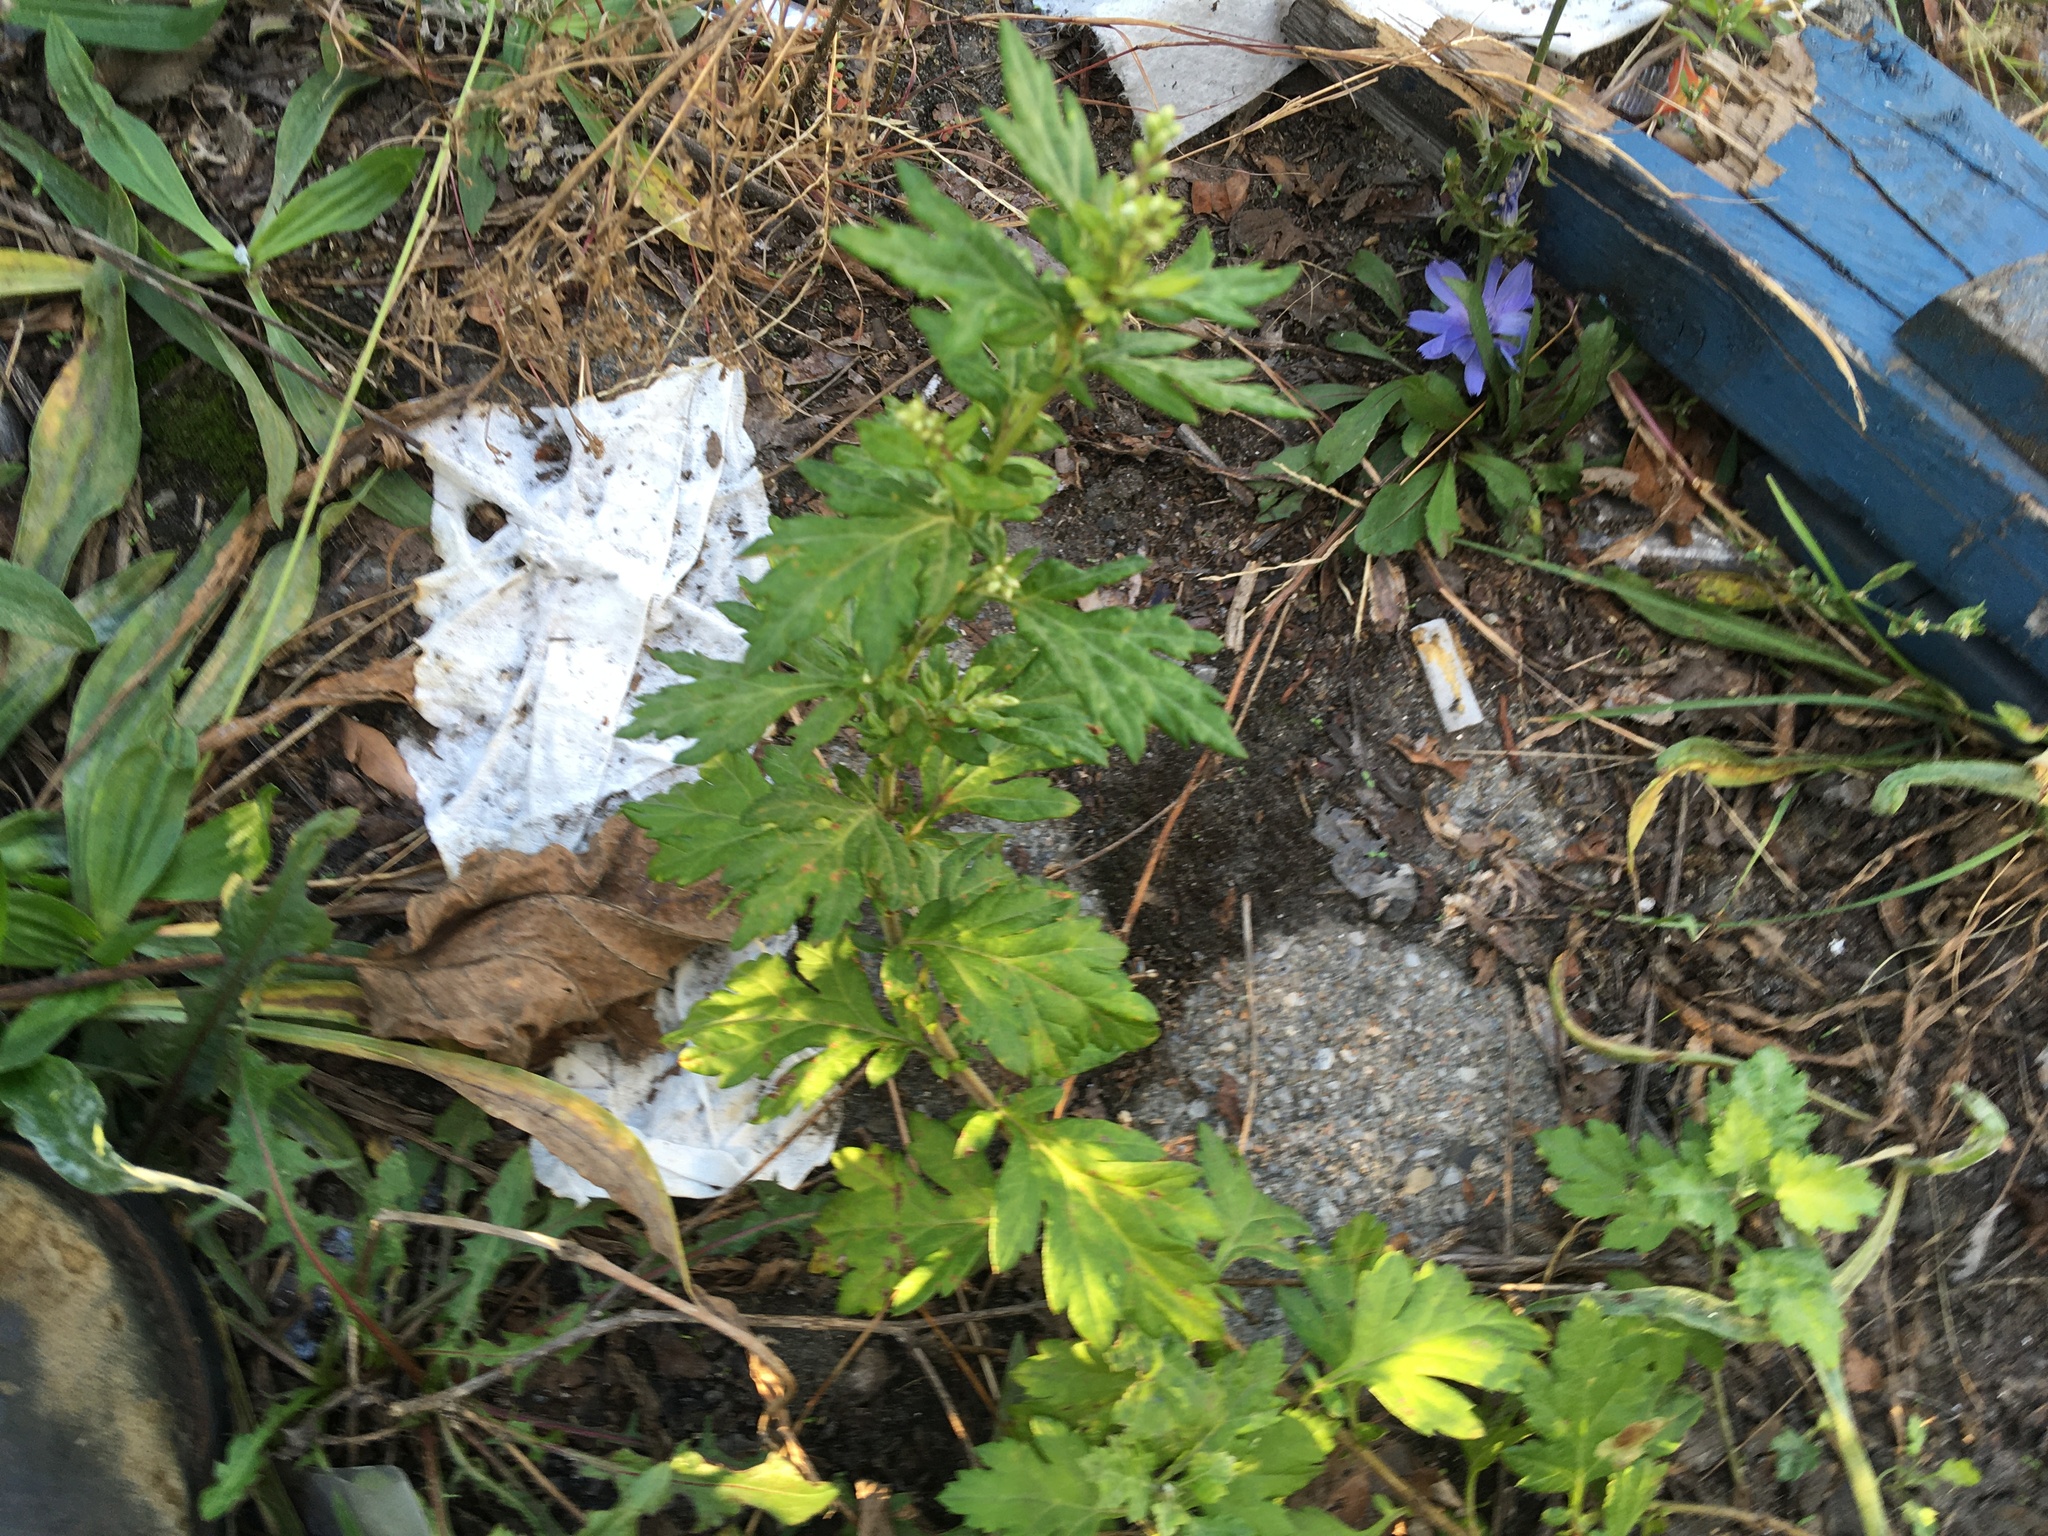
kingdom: Plantae
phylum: Tracheophyta
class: Magnoliopsida
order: Asterales
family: Asteraceae
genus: Artemisia
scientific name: Artemisia vulgaris
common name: Mugwort
